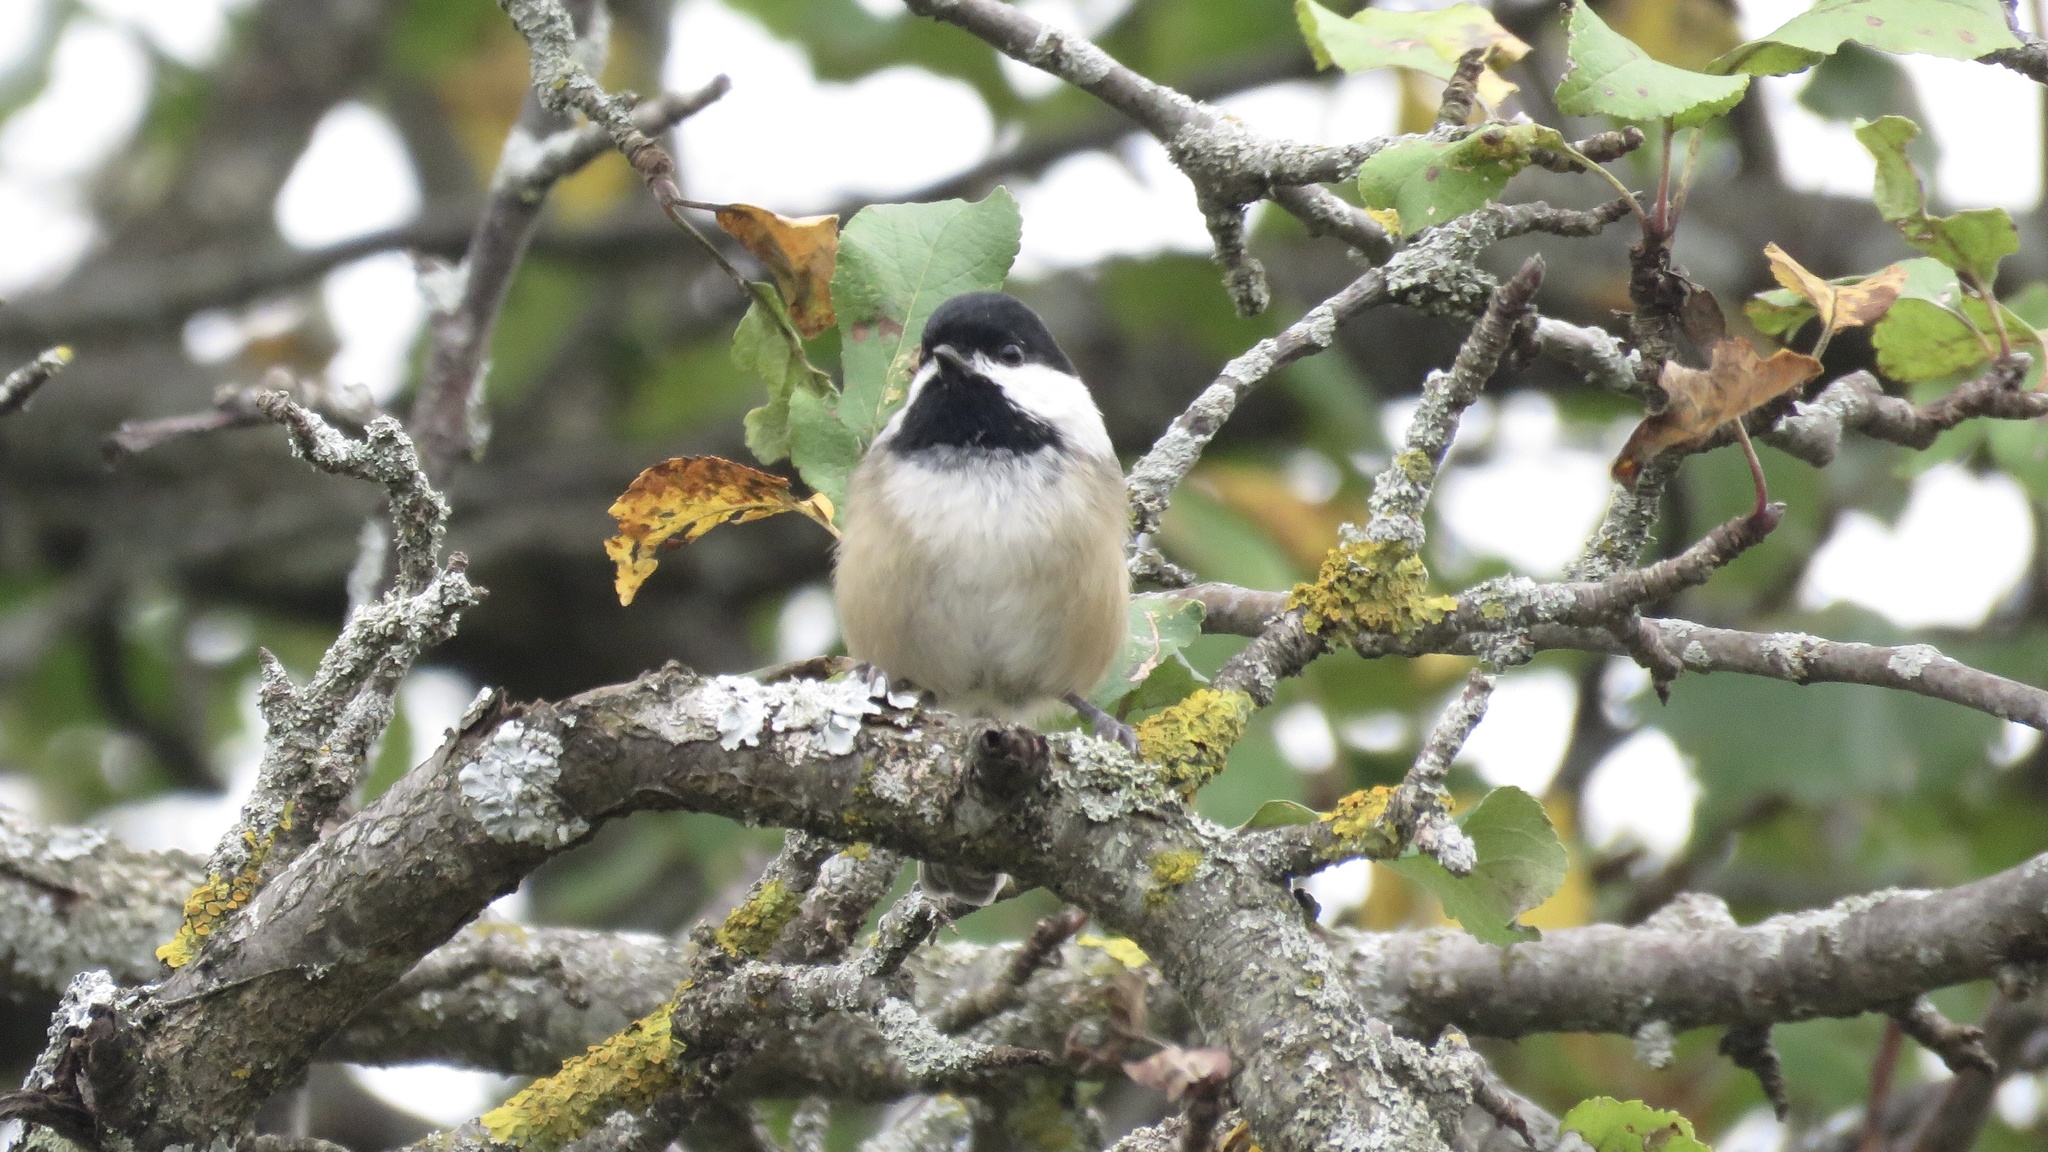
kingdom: Animalia
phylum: Chordata
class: Aves
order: Passeriformes
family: Paridae
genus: Poecile
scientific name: Poecile atricapillus
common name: Black-capped chickadee
